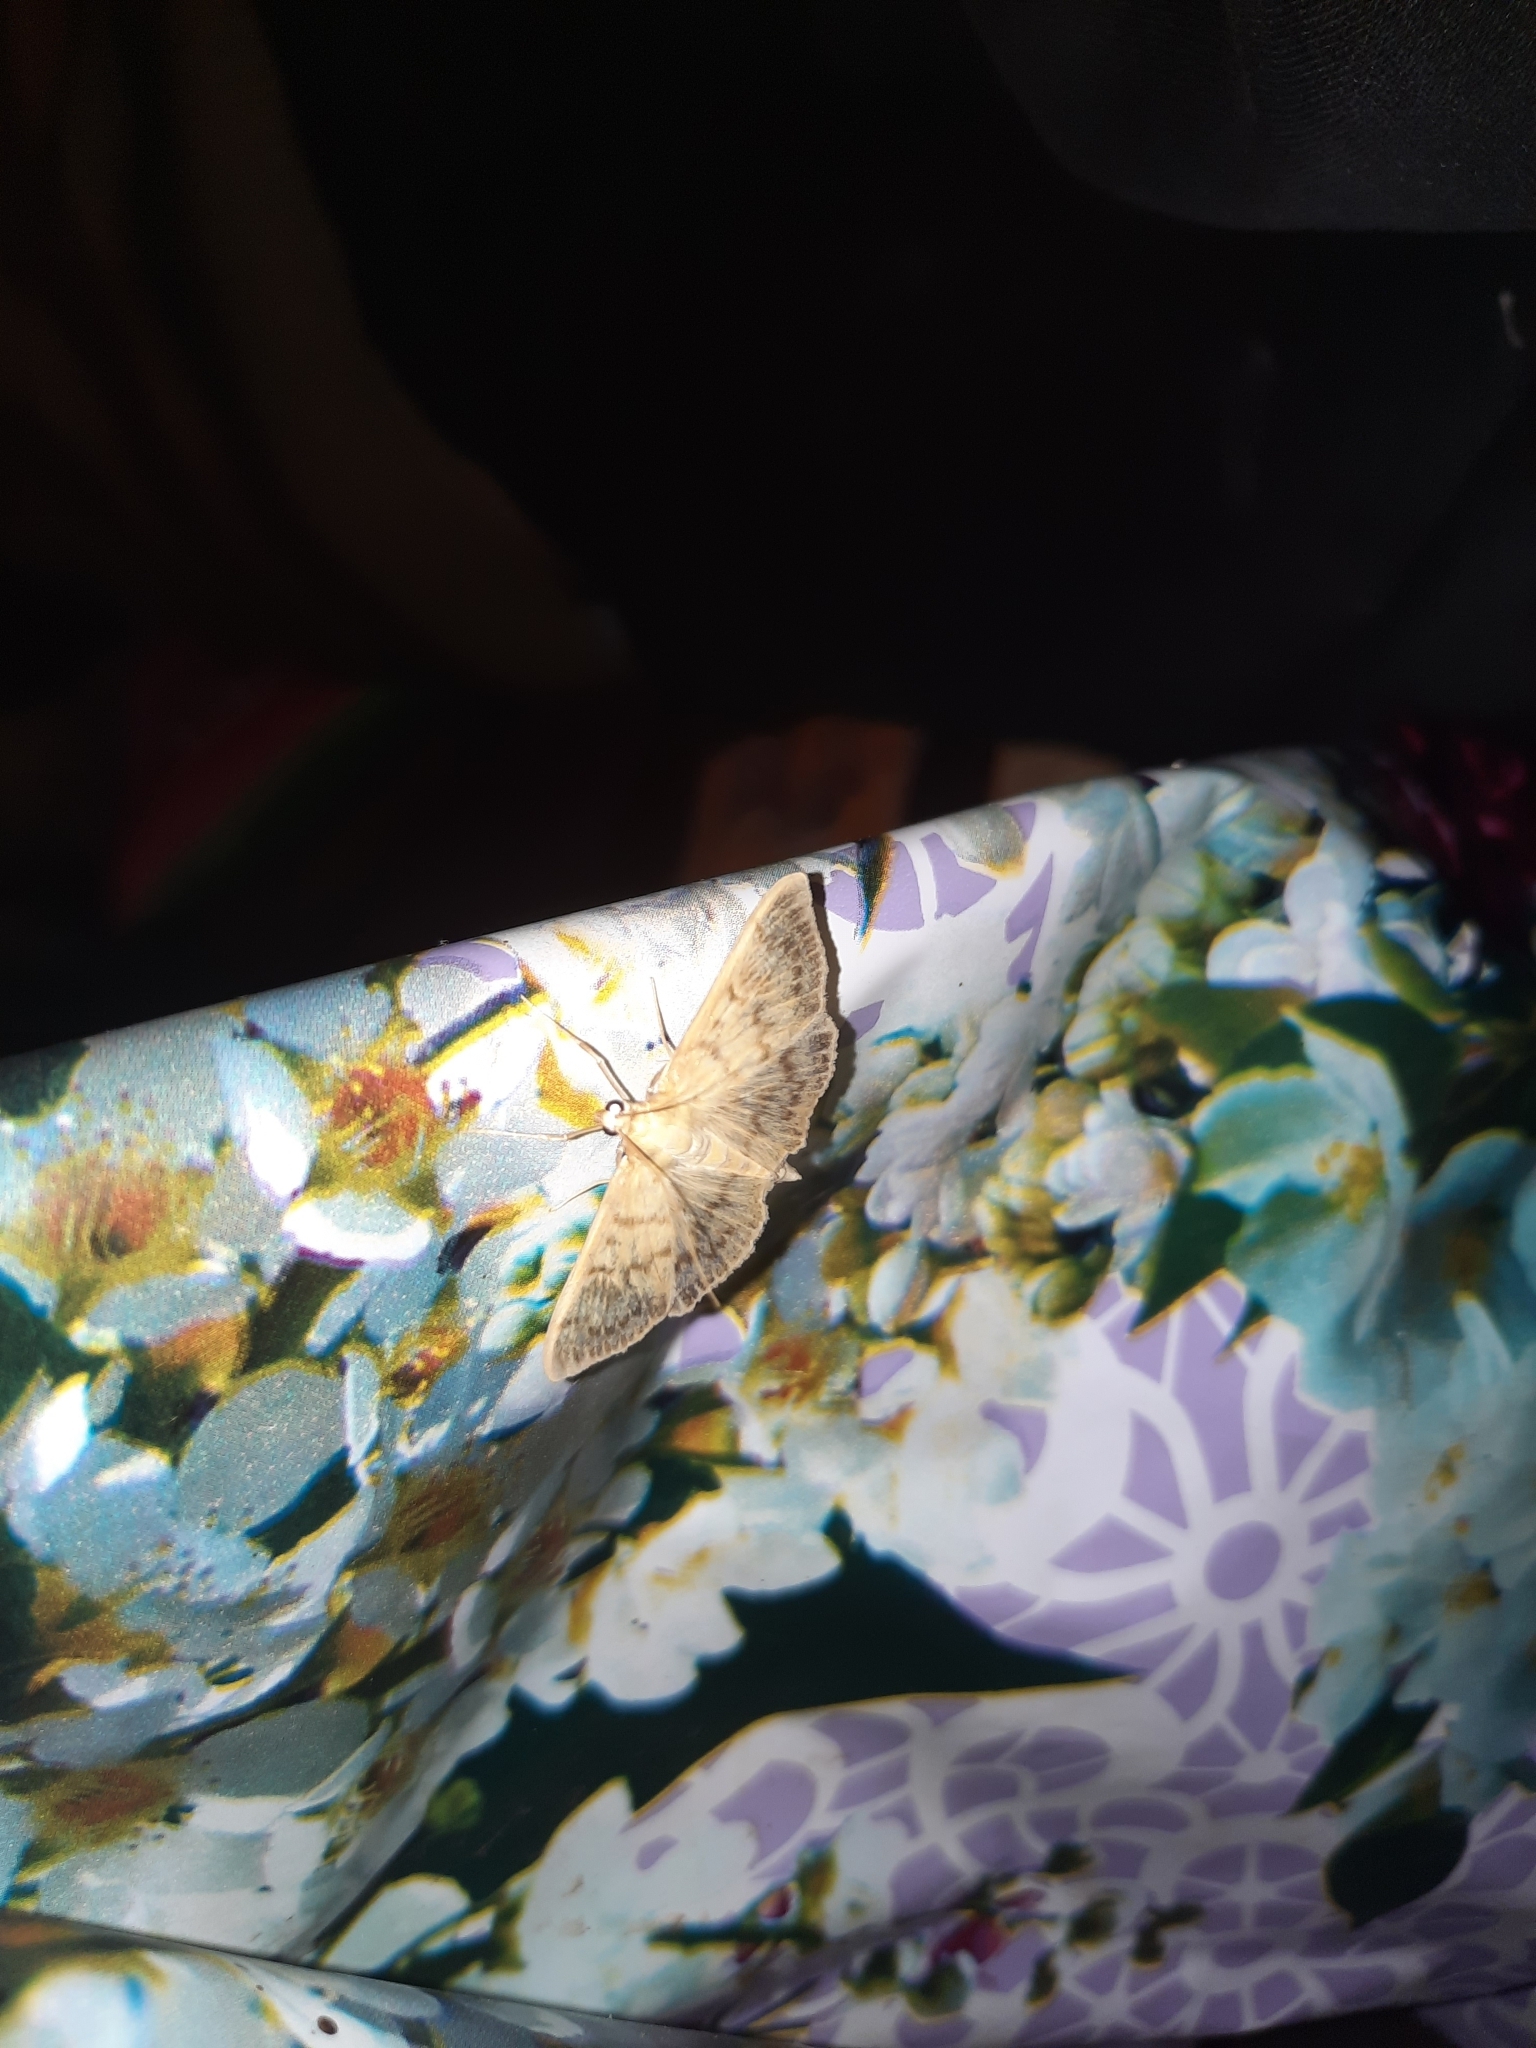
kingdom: Animalia
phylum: Arthropoda
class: Insecta
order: Lepidoptera
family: Crambidae
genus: Patania
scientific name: Patania ruralis
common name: Mother of pearl
